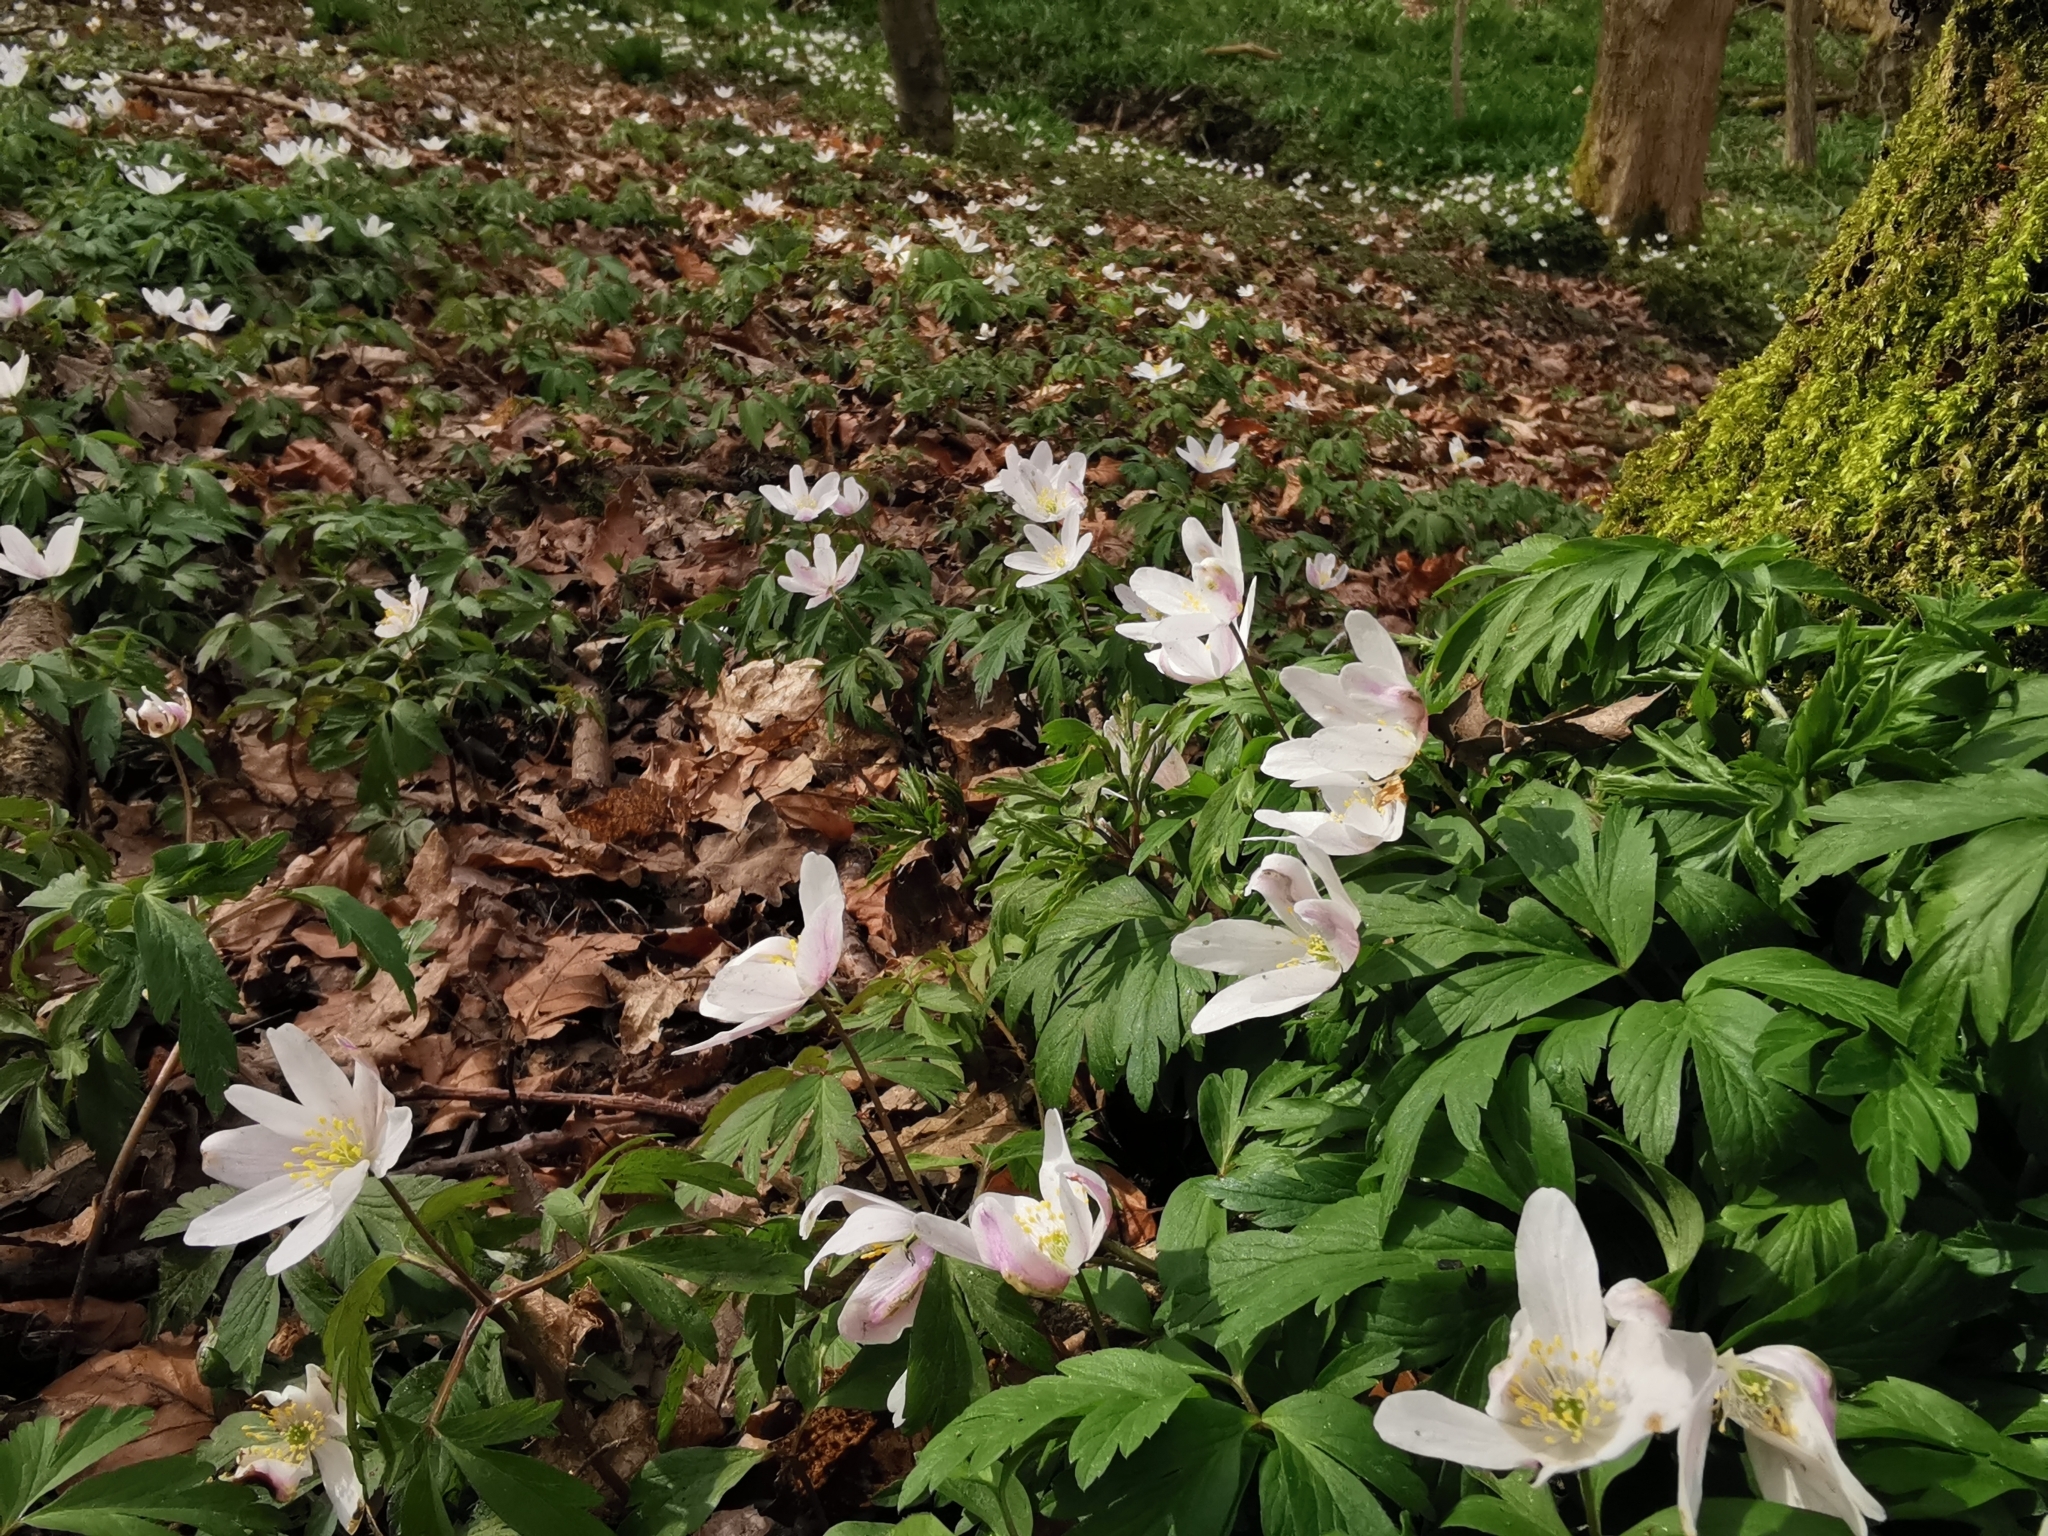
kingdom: Plantae
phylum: Tracheophyta
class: Magnoliopsida
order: Ranunculales
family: Ranunculaceae
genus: Anemone
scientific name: Anemone nemorosa
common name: Wood anemone
